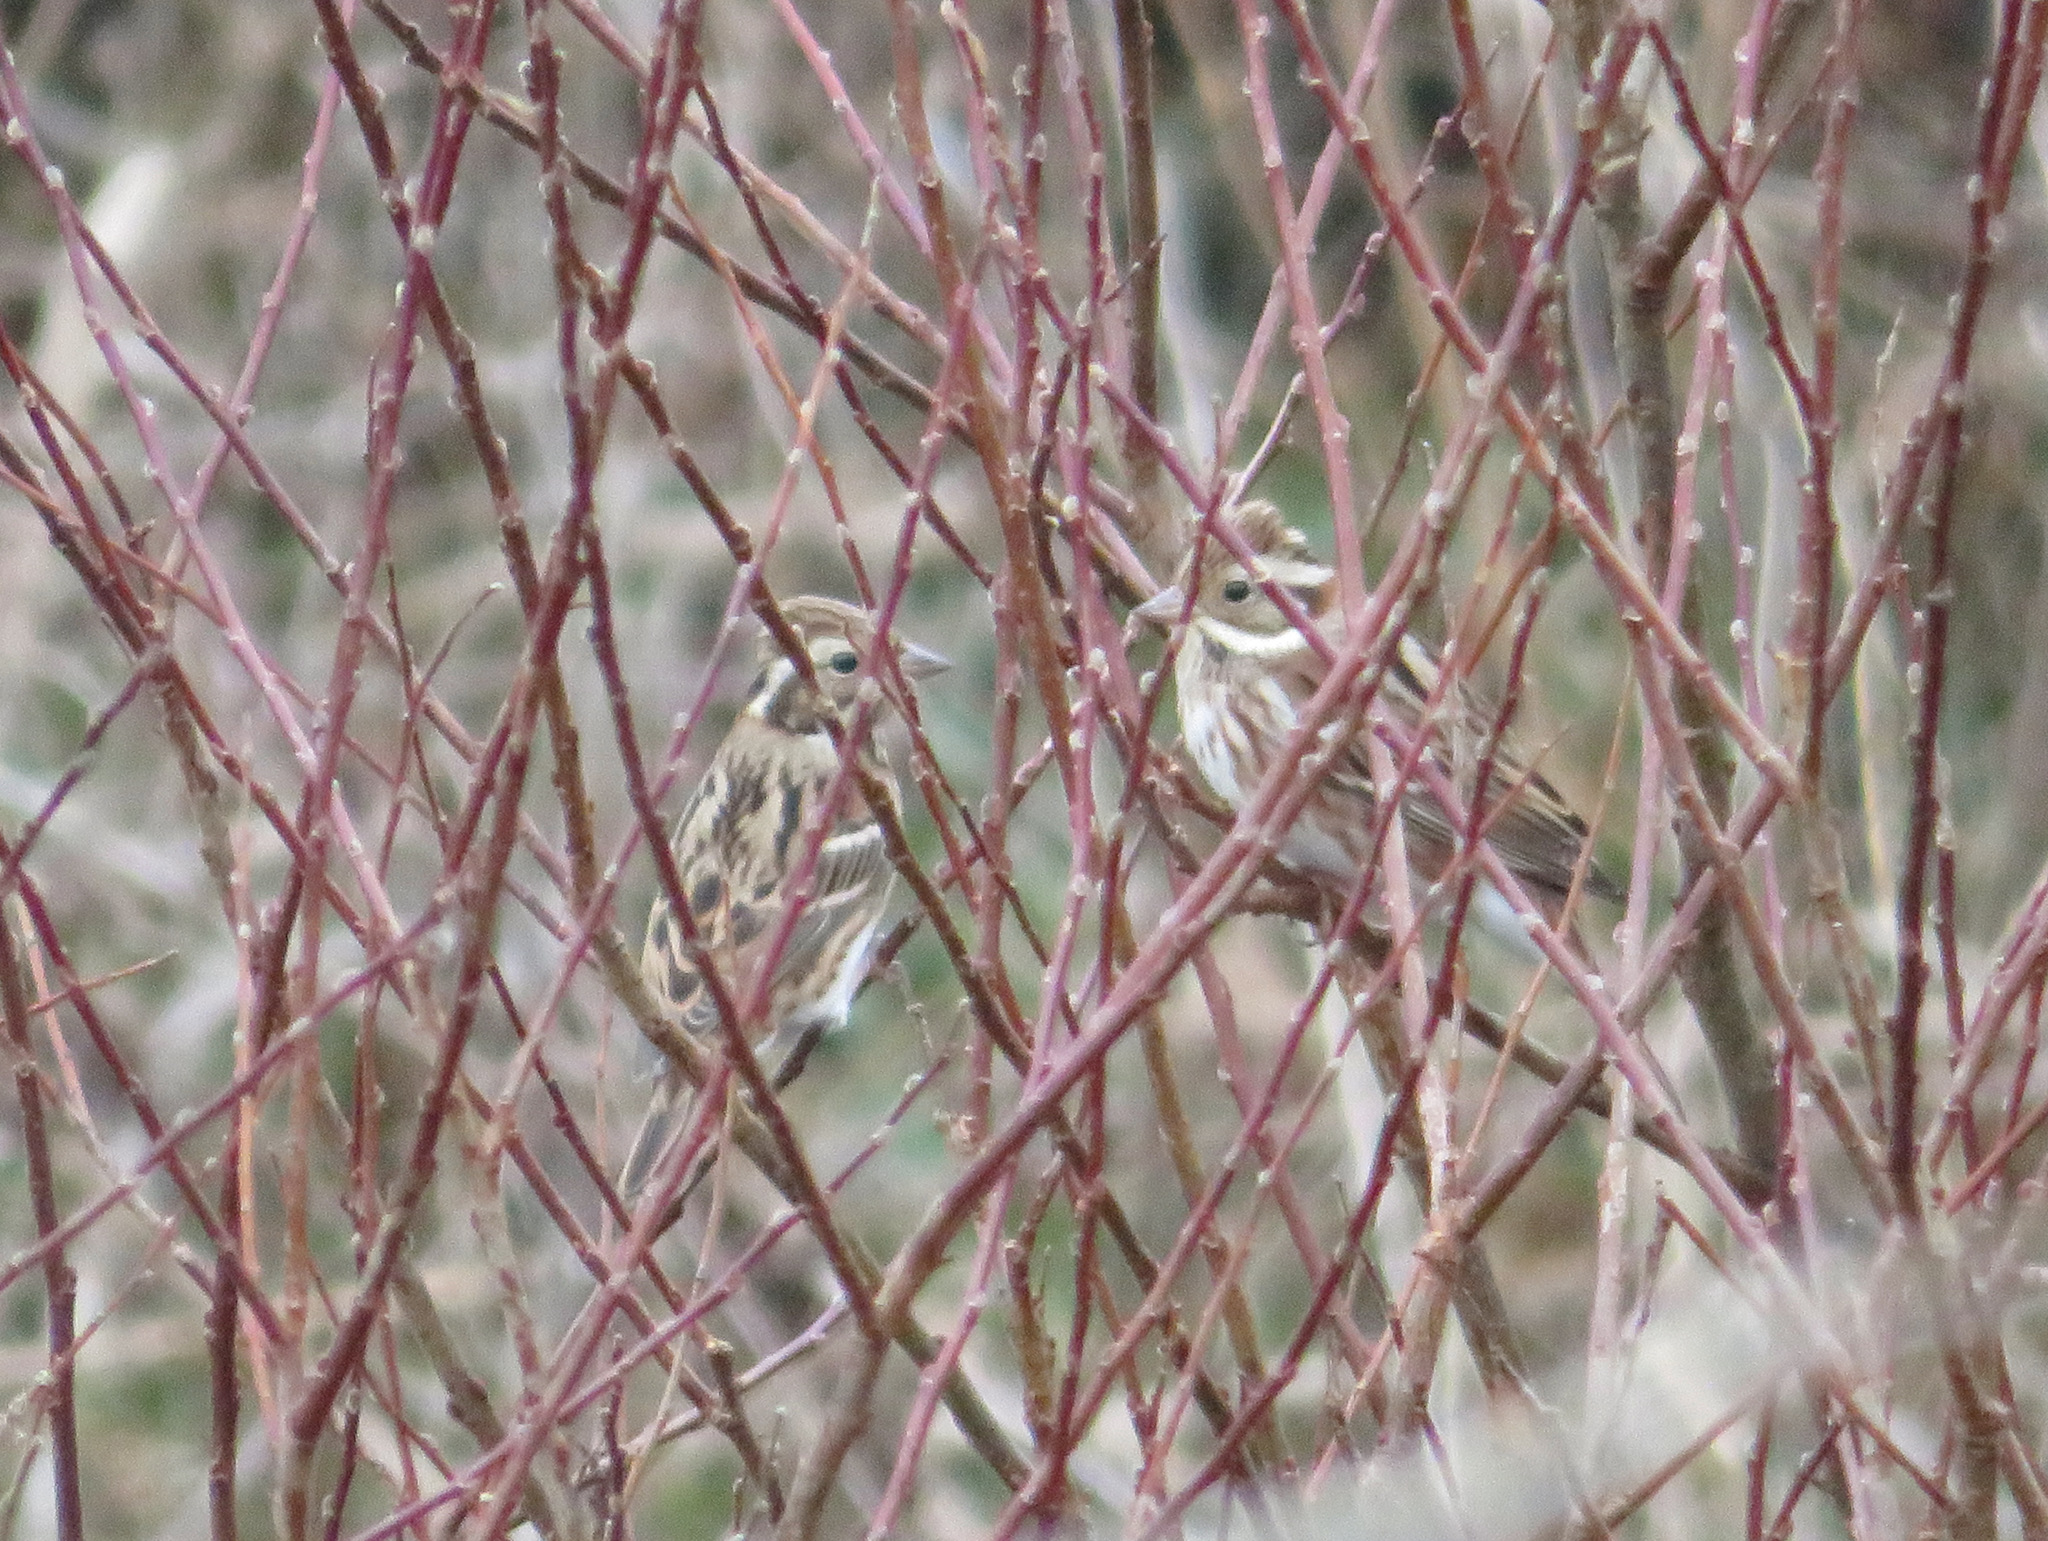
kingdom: Animalia
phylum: Chordata
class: Aves
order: Passeriformes
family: Emberizidae
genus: Emberiza
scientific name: Emberiza rustica
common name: Rustic bunting
